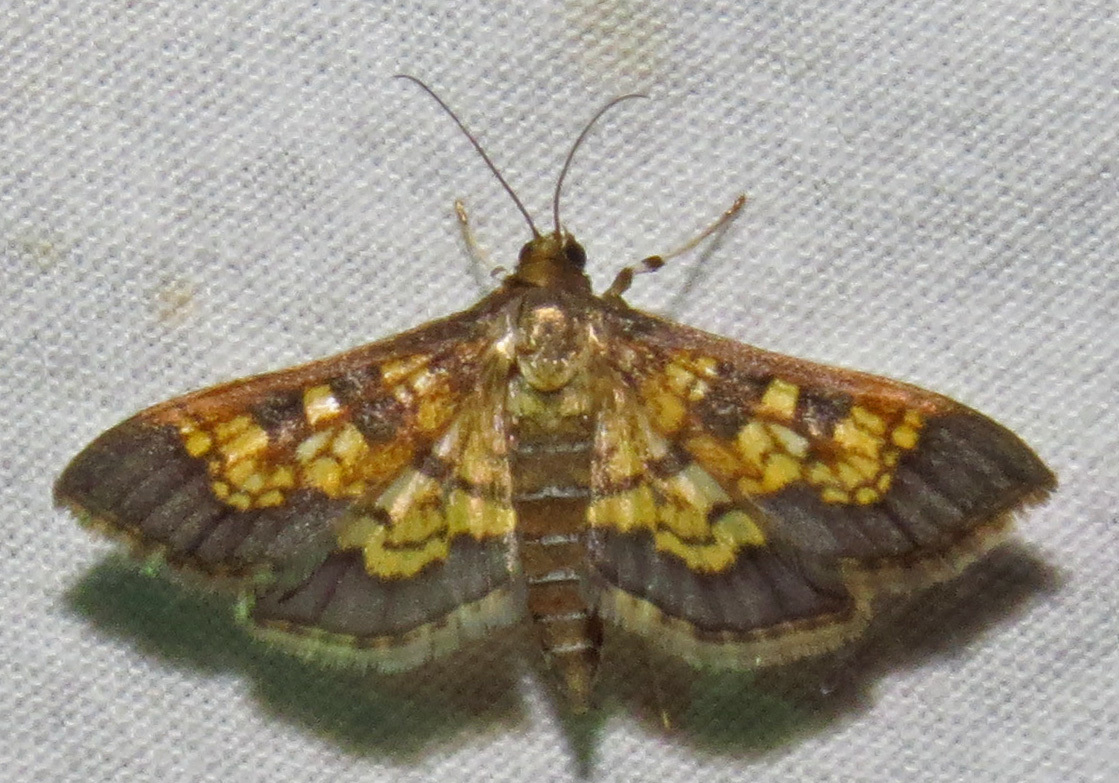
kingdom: Animalia
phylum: Arthropoda
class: Insecta
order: Lepidoptera
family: Crambidae
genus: Epipagis
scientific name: Epipagis adipaloides
